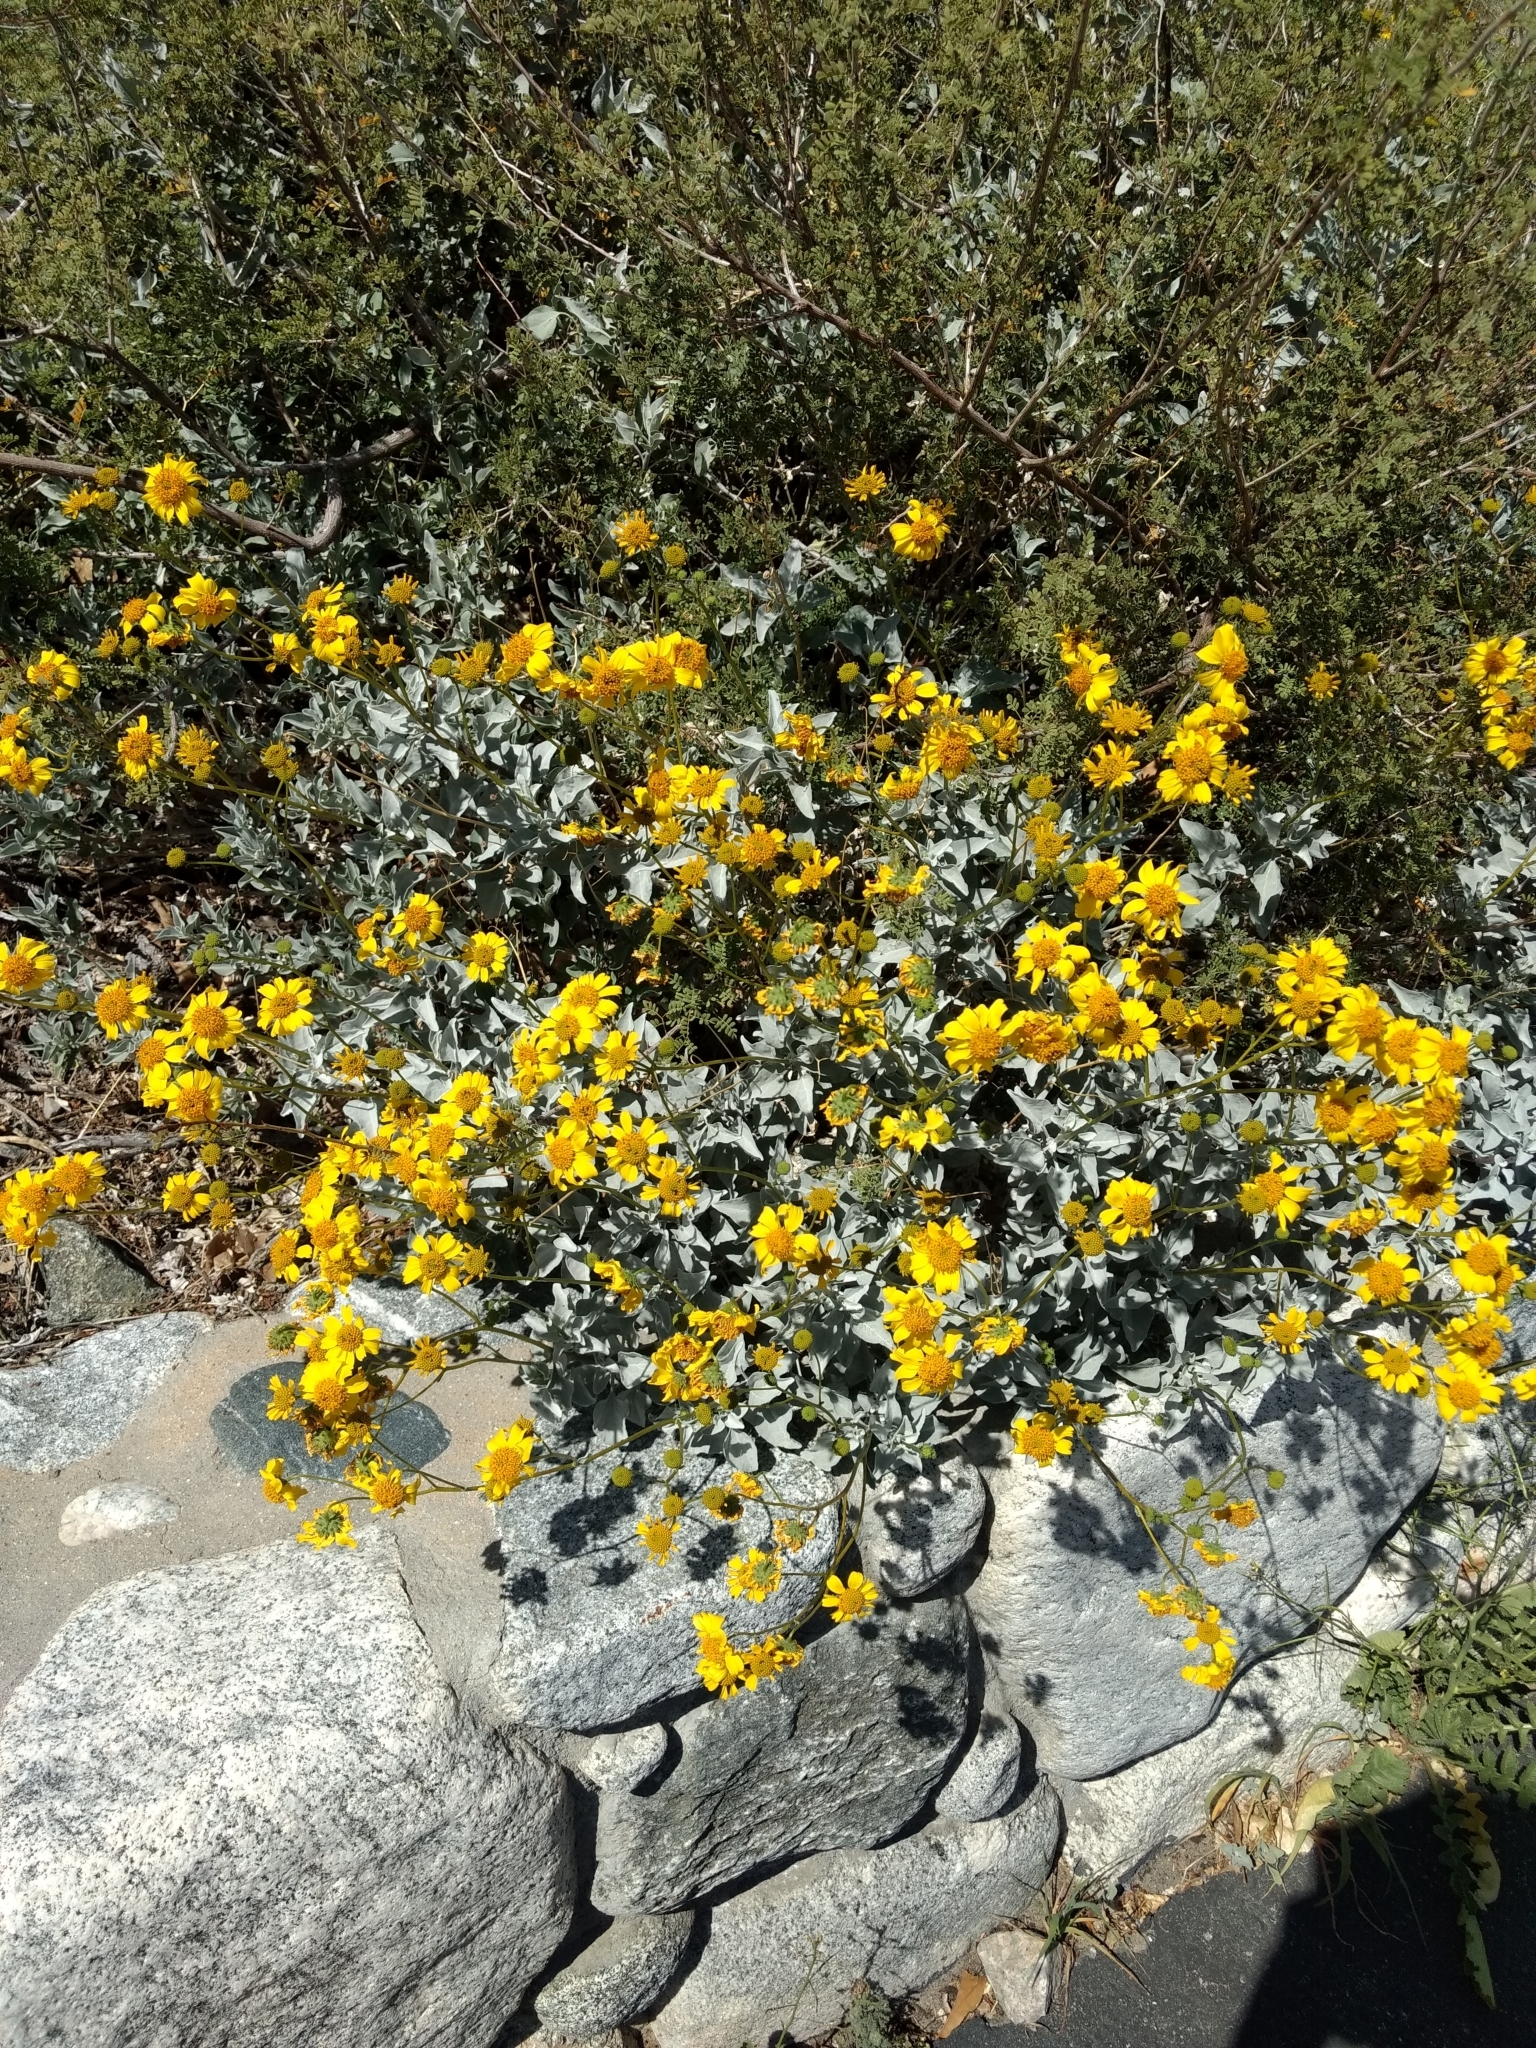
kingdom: Plantae
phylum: Tracheophyta
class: Magnoliopsida
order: Asterales
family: Asteraceae
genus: Encelia
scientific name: Encelia farinosa
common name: Brittlebush
